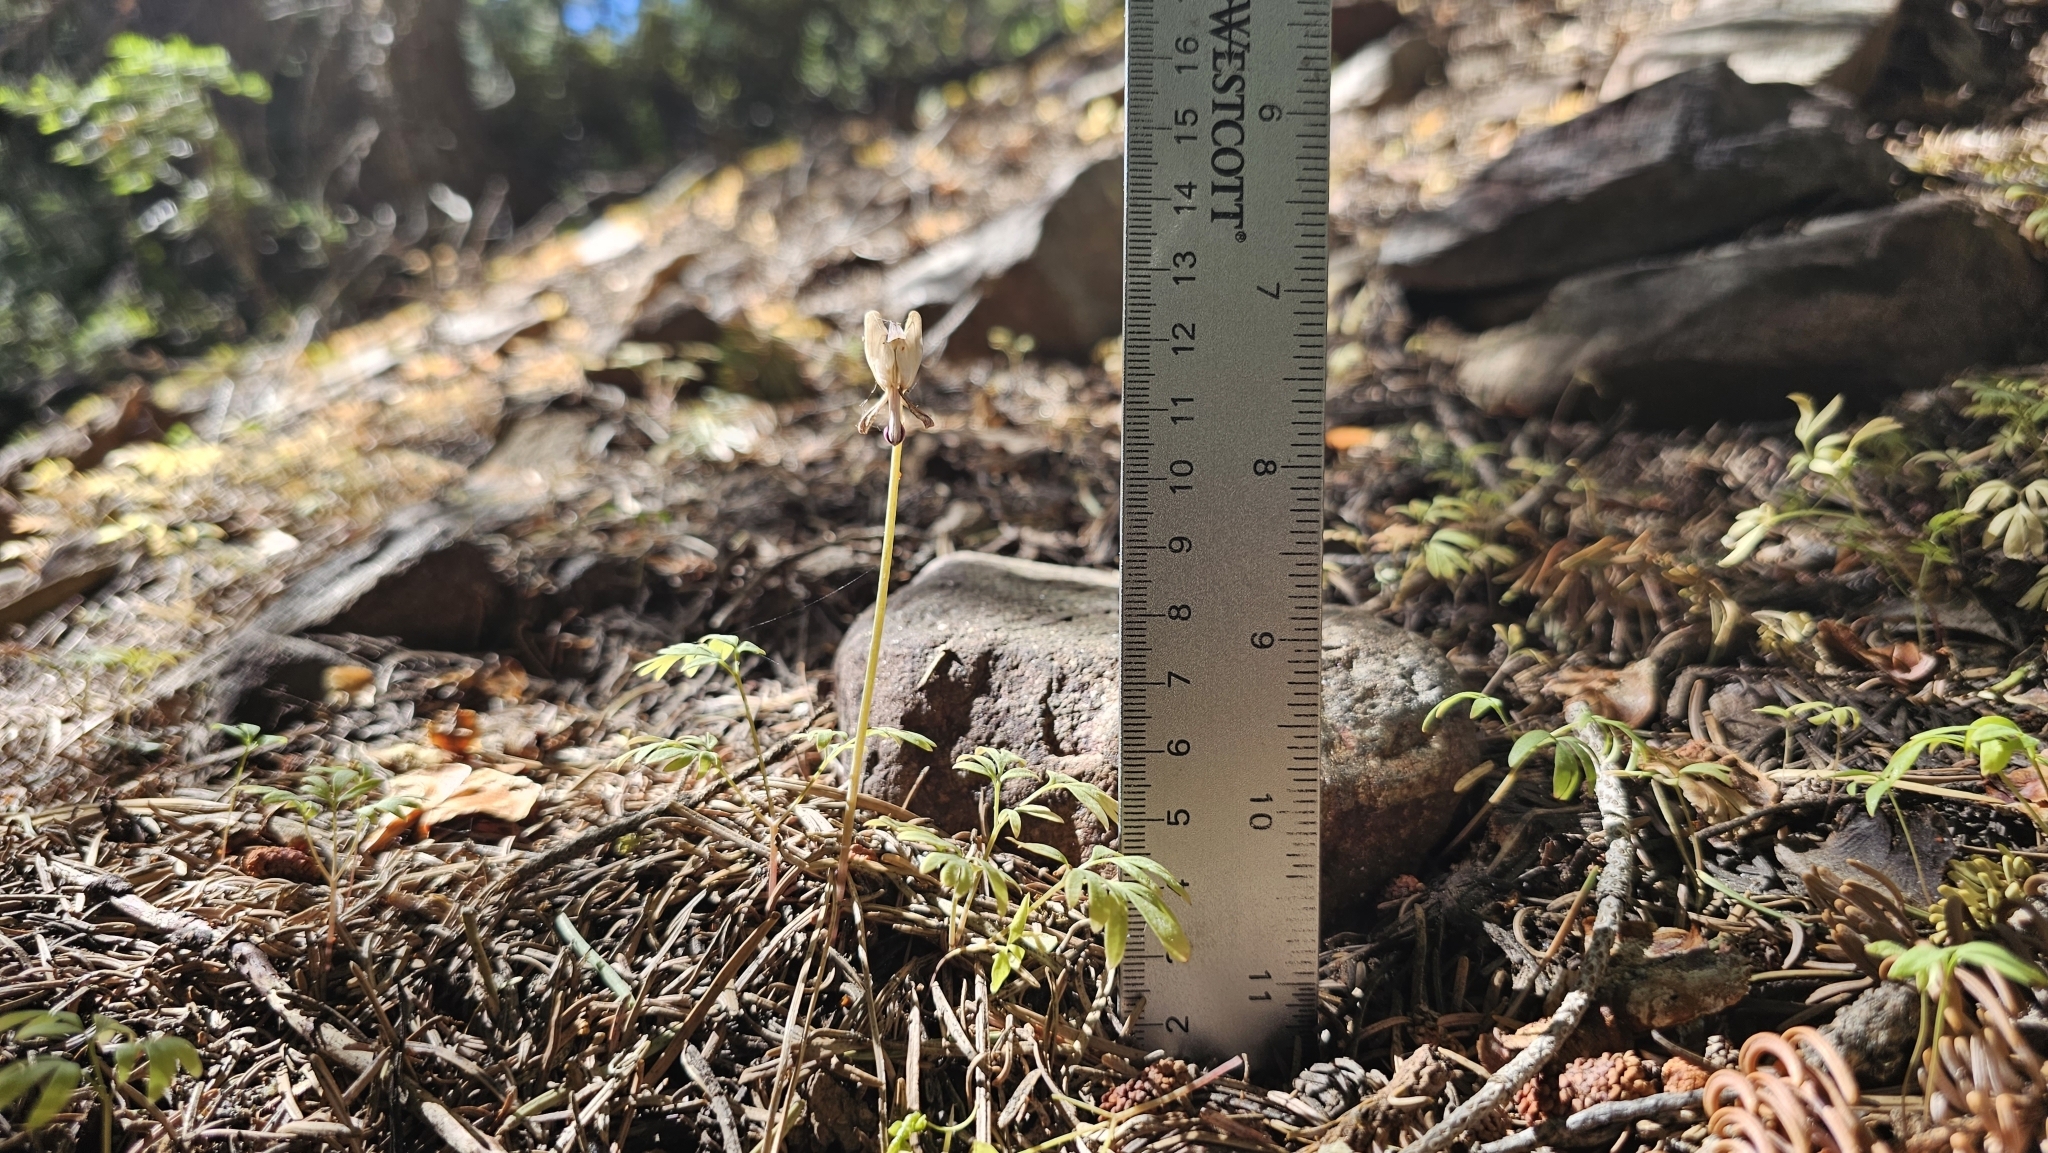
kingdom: Plantae
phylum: Tracheophyta
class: Magnoliopsida
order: Ranunculales
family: Papaveraceae
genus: Dicentra
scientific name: Dicentra pauciflora
